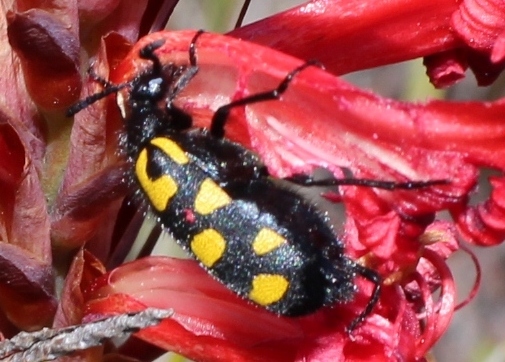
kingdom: Animalia
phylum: Arthropoda
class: Insecta
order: Coleoptera
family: Meloidae
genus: Ceroctis
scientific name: Ceroctis capensis
